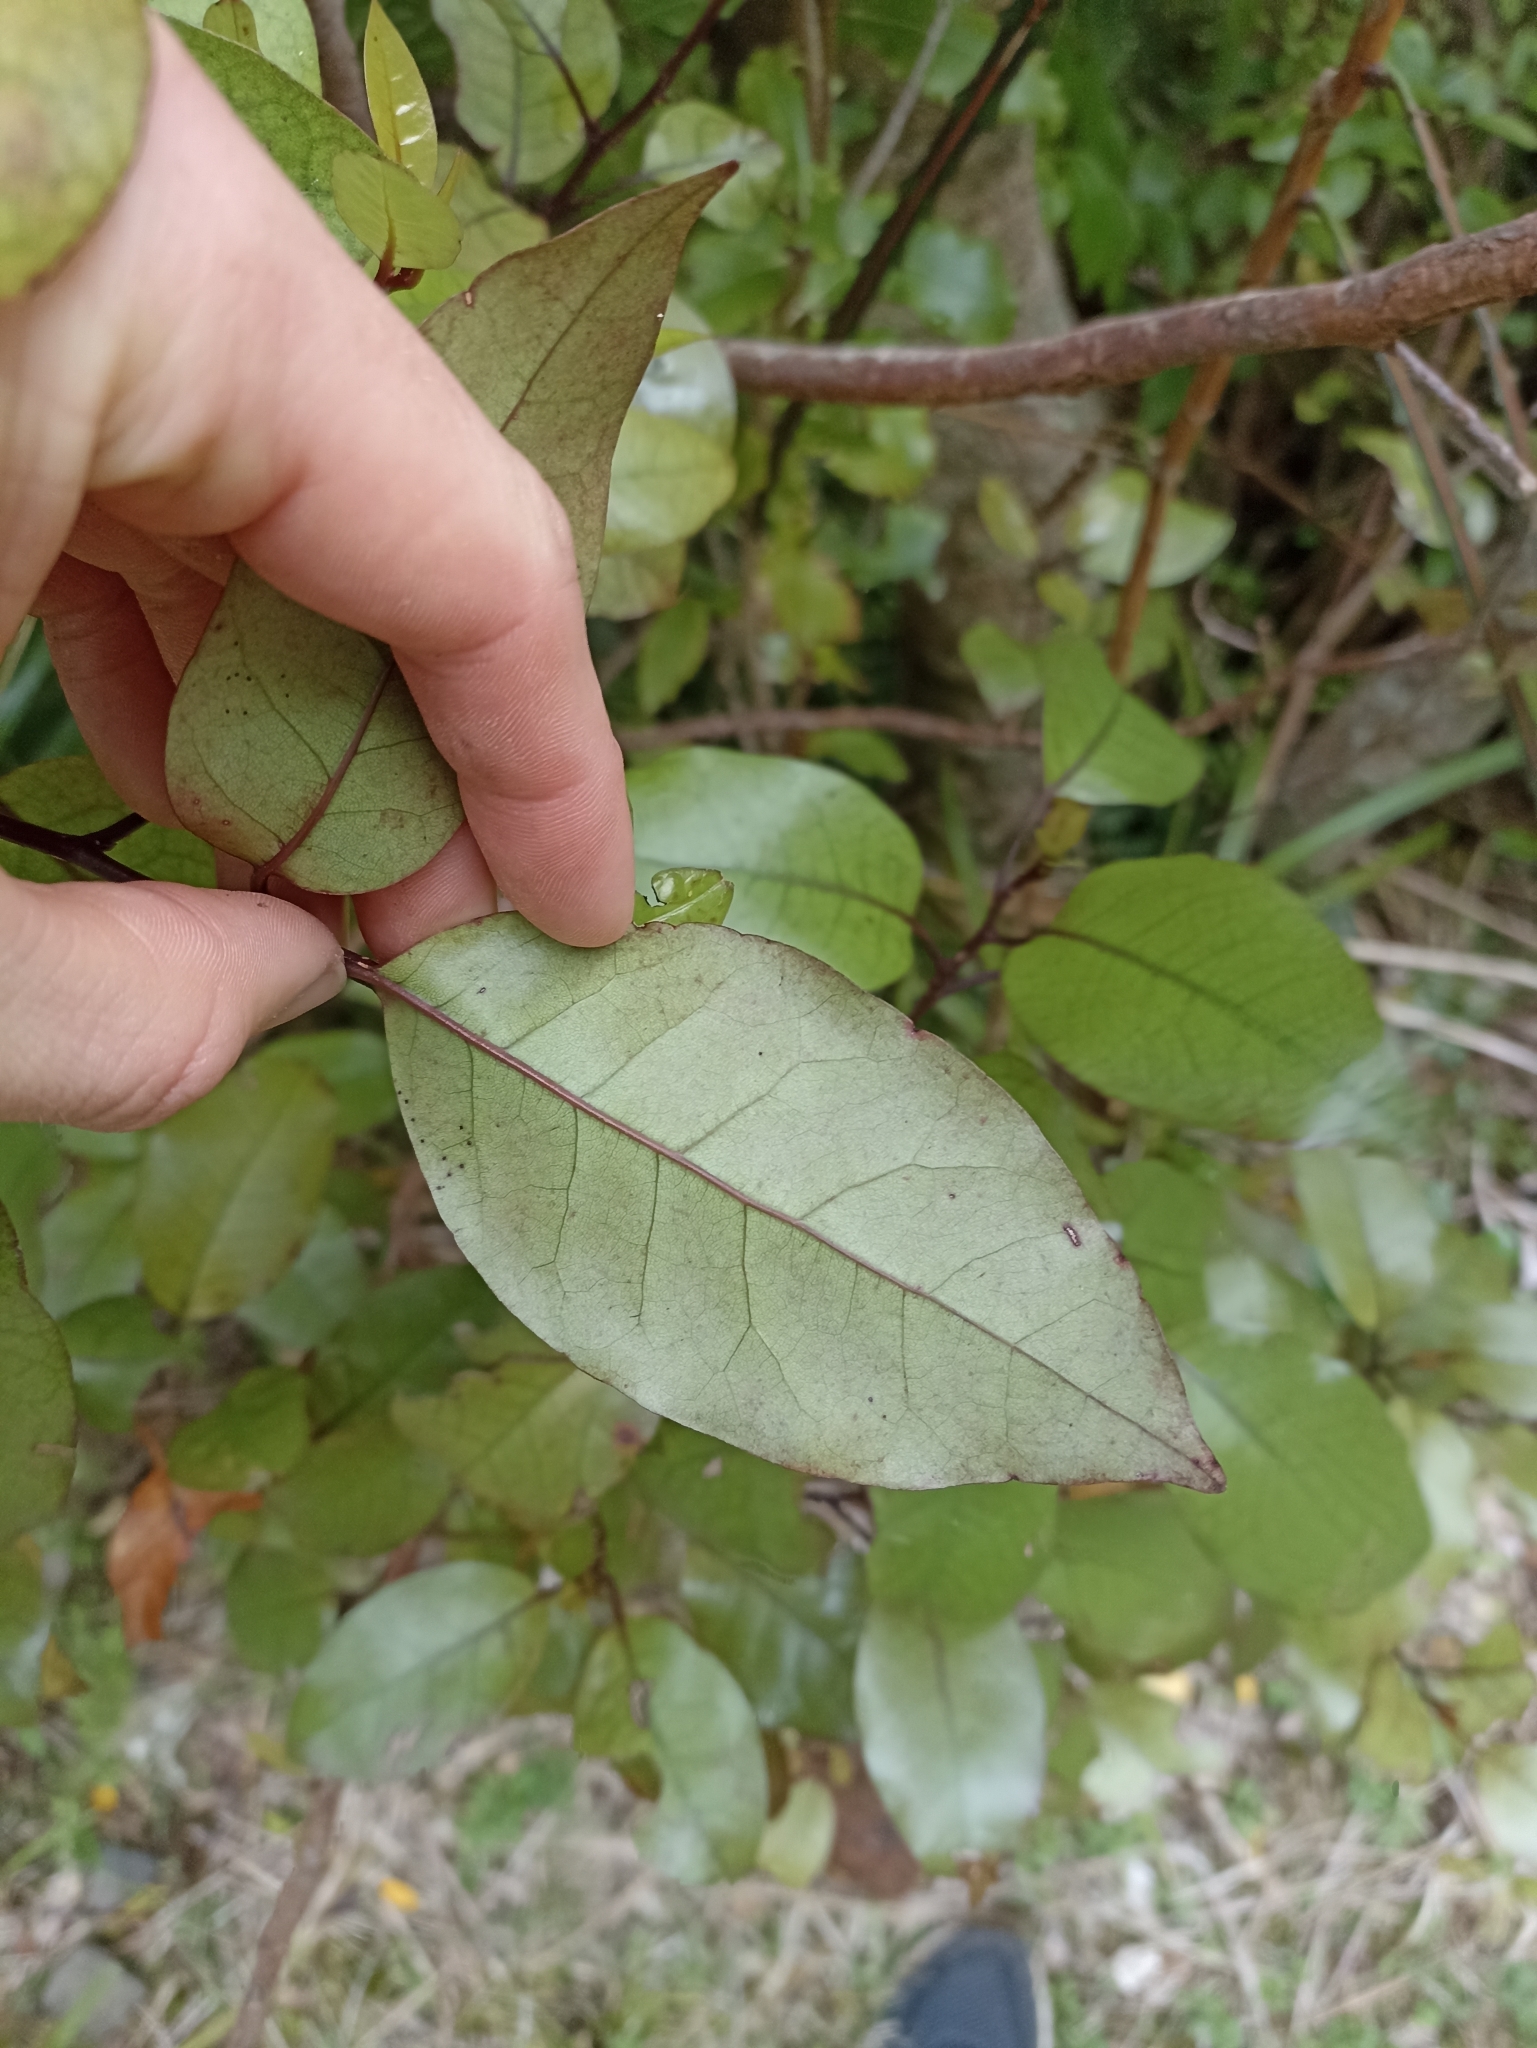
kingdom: Plantae
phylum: Tracheophyta
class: Magnoliopsida
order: Laurales
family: Lauraceae
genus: Litsea
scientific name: Litsea calicaris
